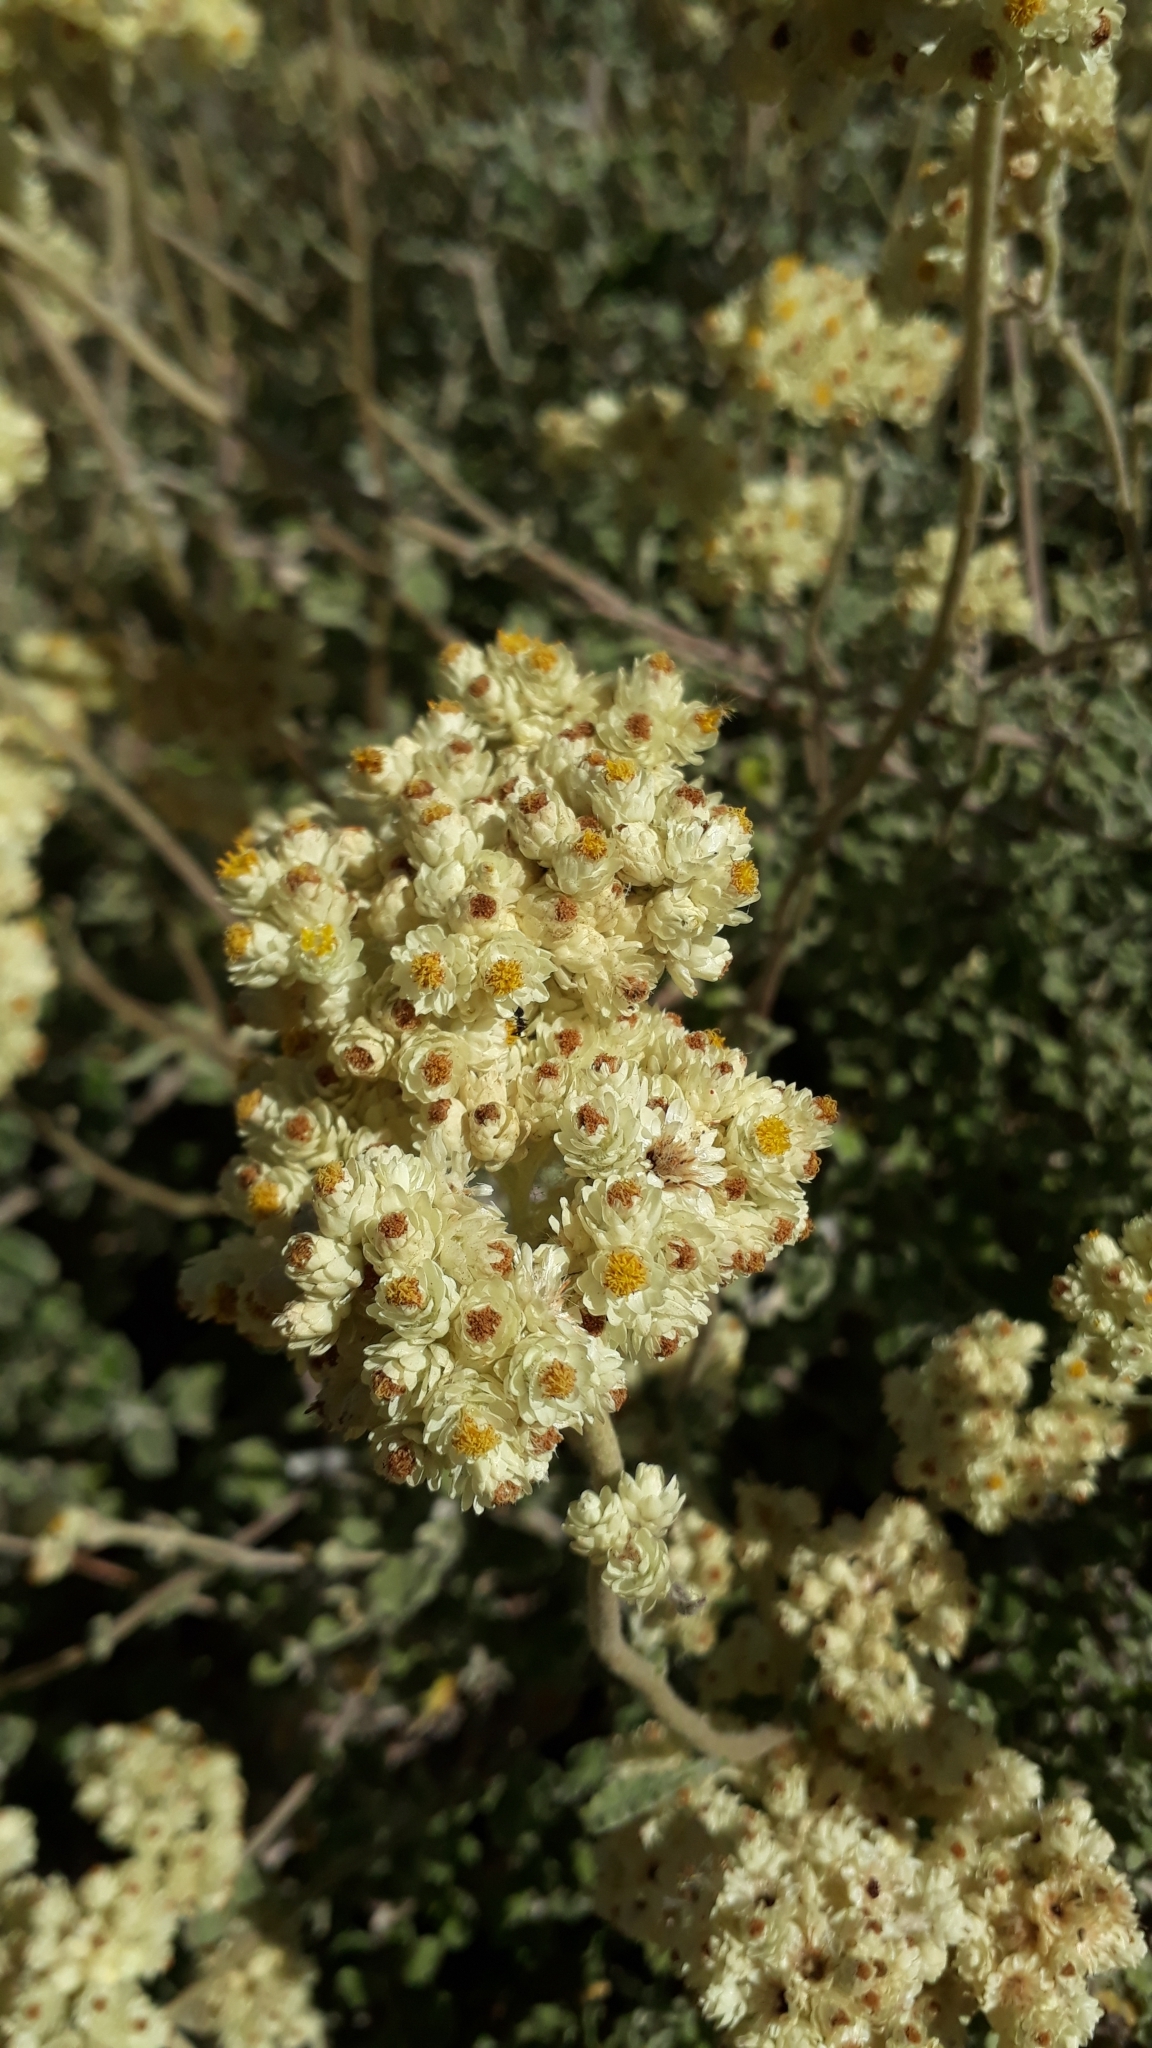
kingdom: Plantae
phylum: Tracheophyta
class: Magnoliopsida
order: Asterales
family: Asteraceae
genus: Helichrysum
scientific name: Helichrysum pandurifolium
